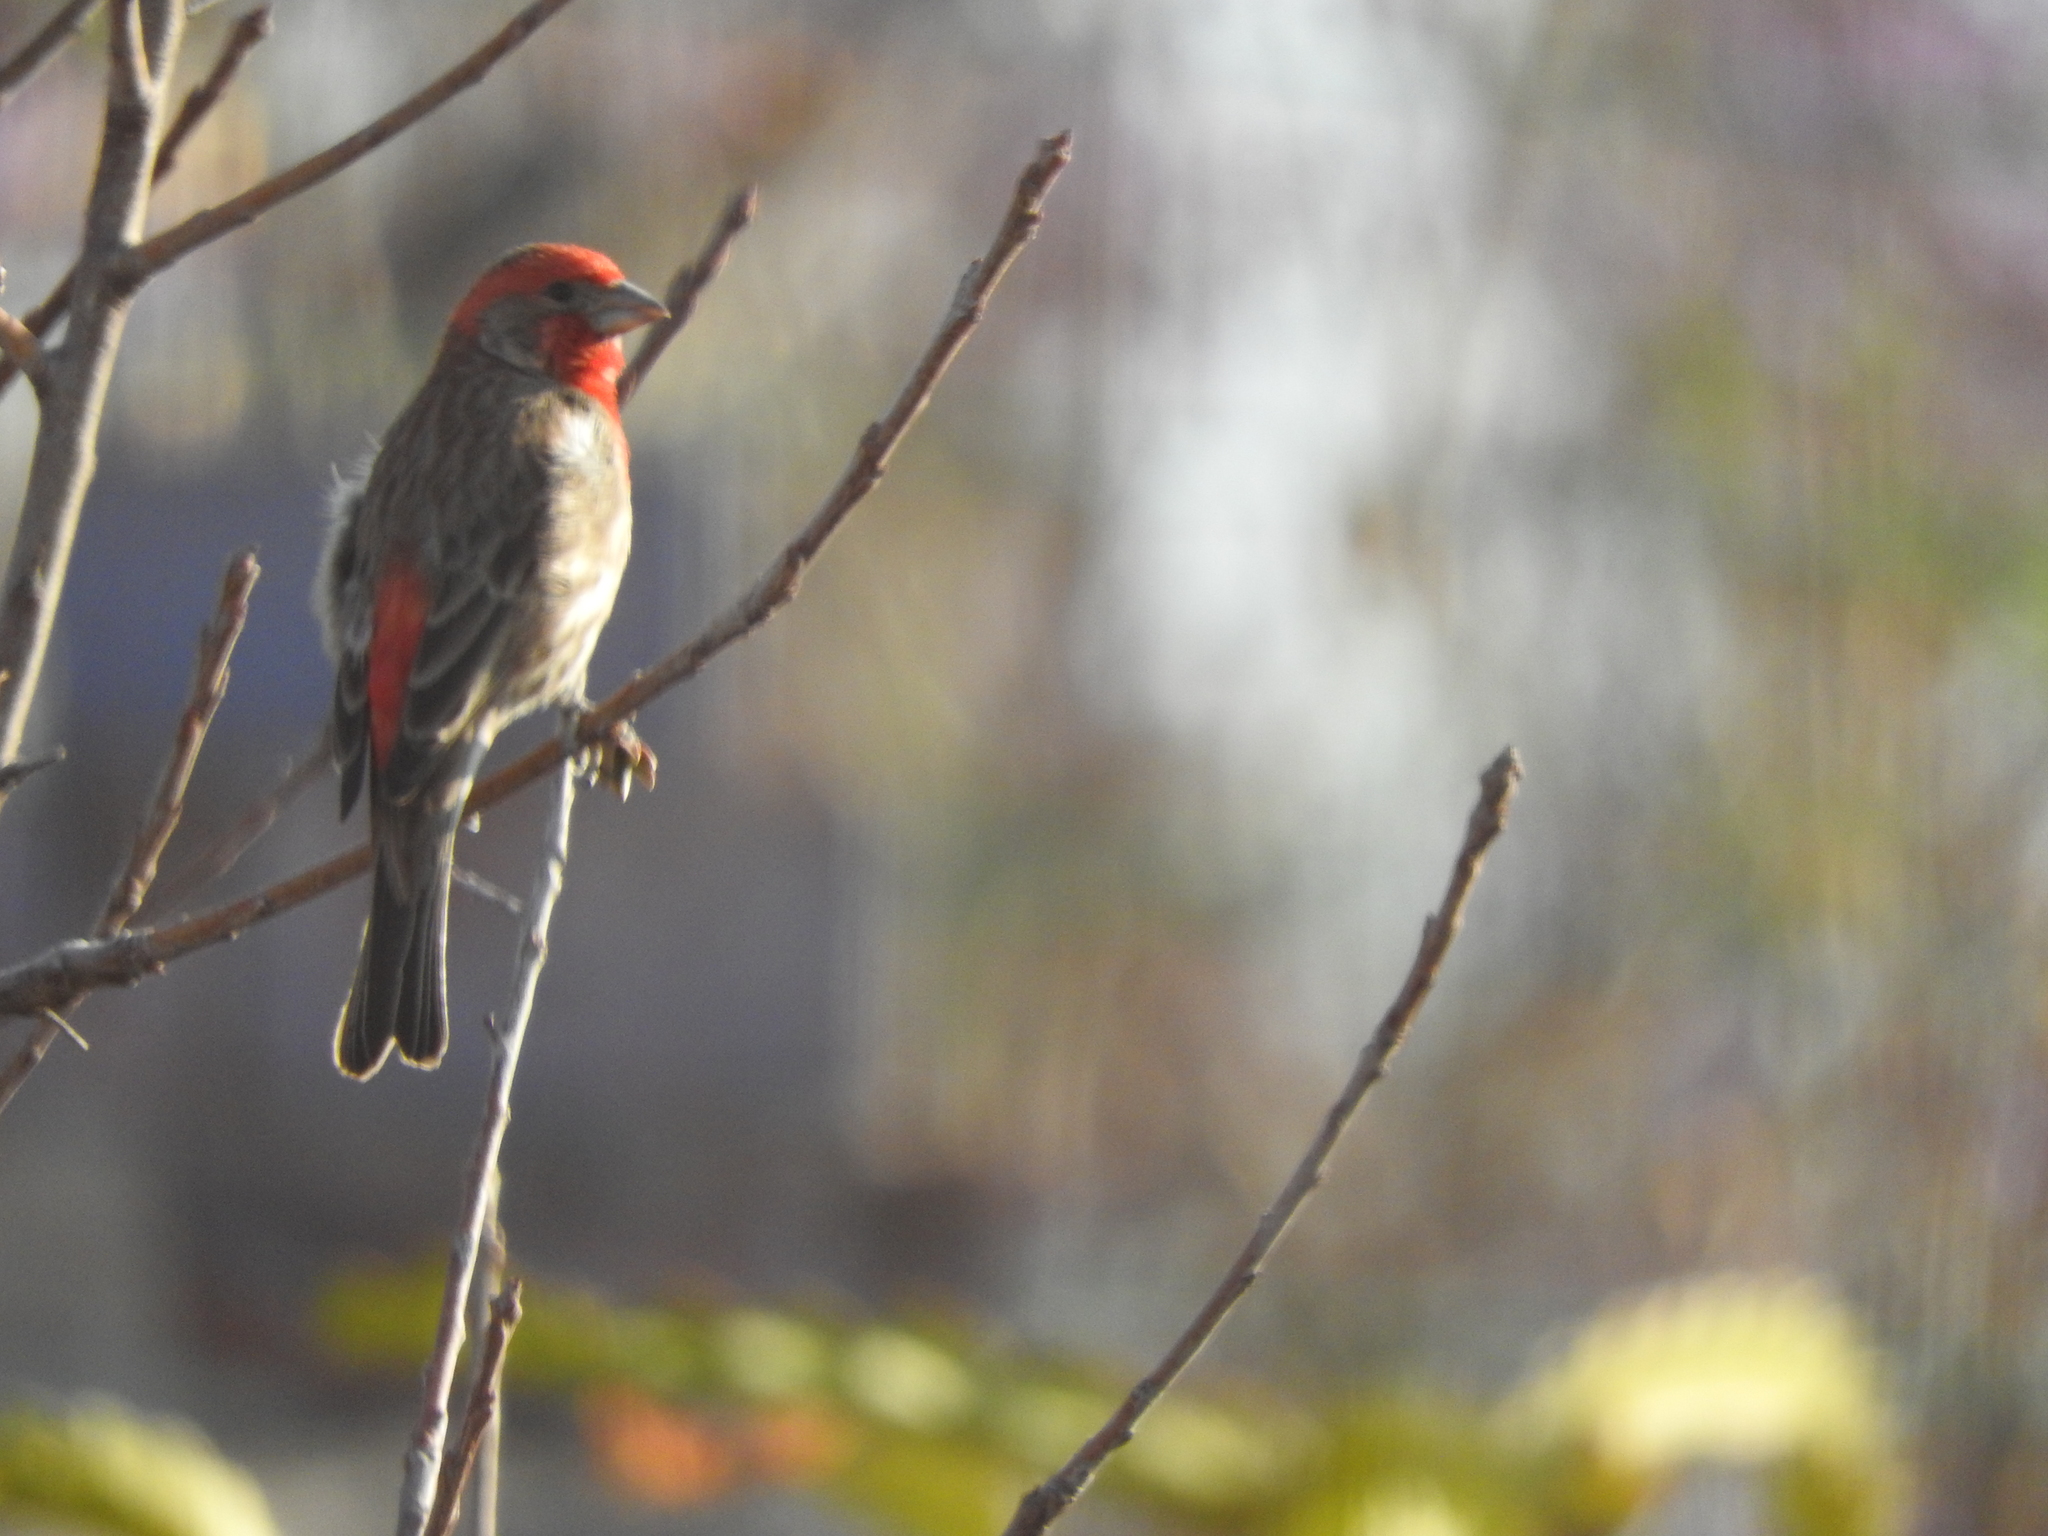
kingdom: Animalia
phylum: Chordata
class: Aves
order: Passeriformes
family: Fringillidae
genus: Haemorhous
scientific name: Haemorhous mexicanus
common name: House finch
